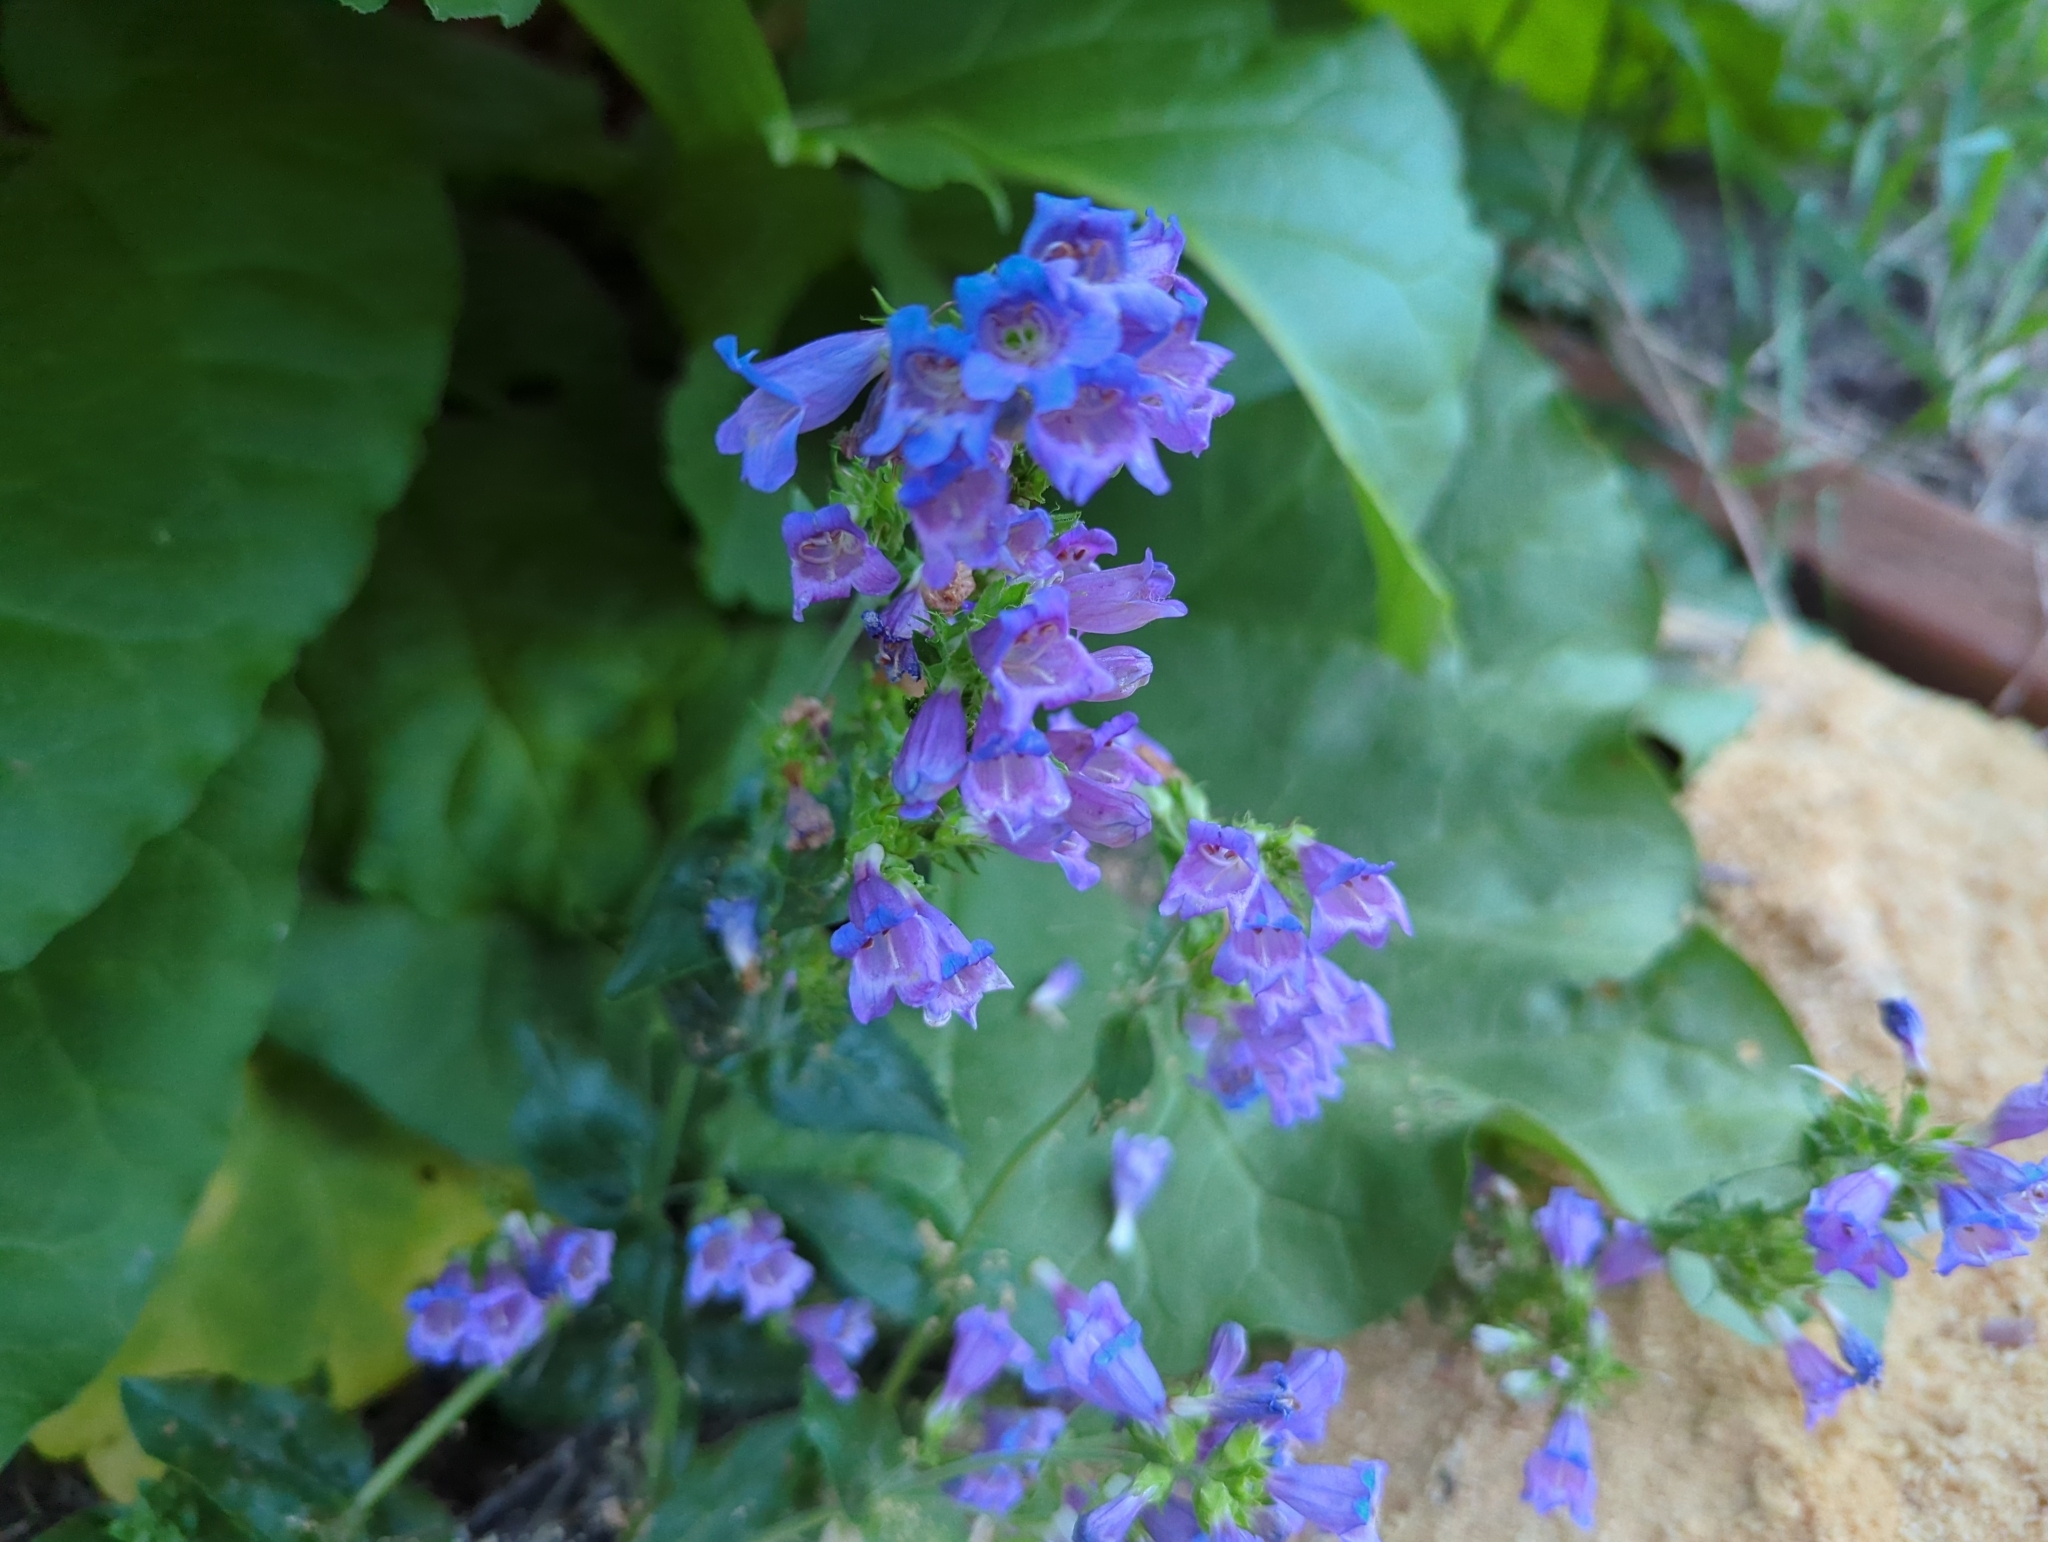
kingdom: Plantae
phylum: Tracheophyta
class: Magnoliopsida
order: Lamiales
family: Plantaginaceae
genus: Penstemon
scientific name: Penstemon serrulatus
